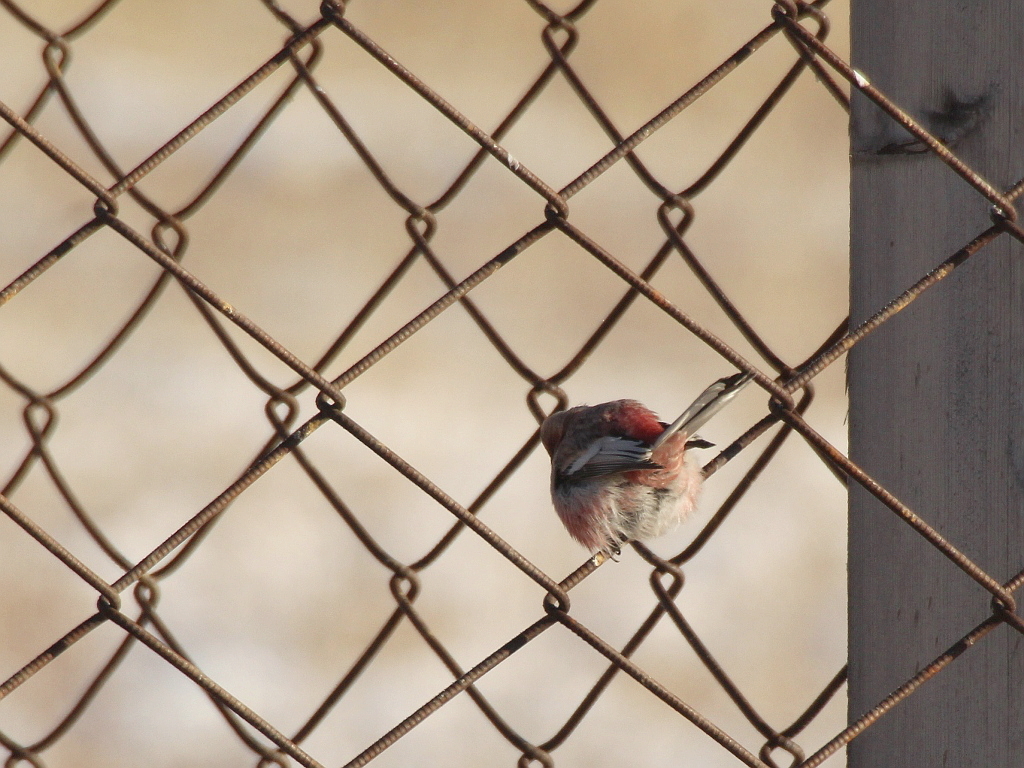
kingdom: Animalia
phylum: Chordata
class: Aves
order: Passeriformes
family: Fringillidae
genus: Carpodacus
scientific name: Carpodacus sibiricus
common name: Long-tailed rosefinch
